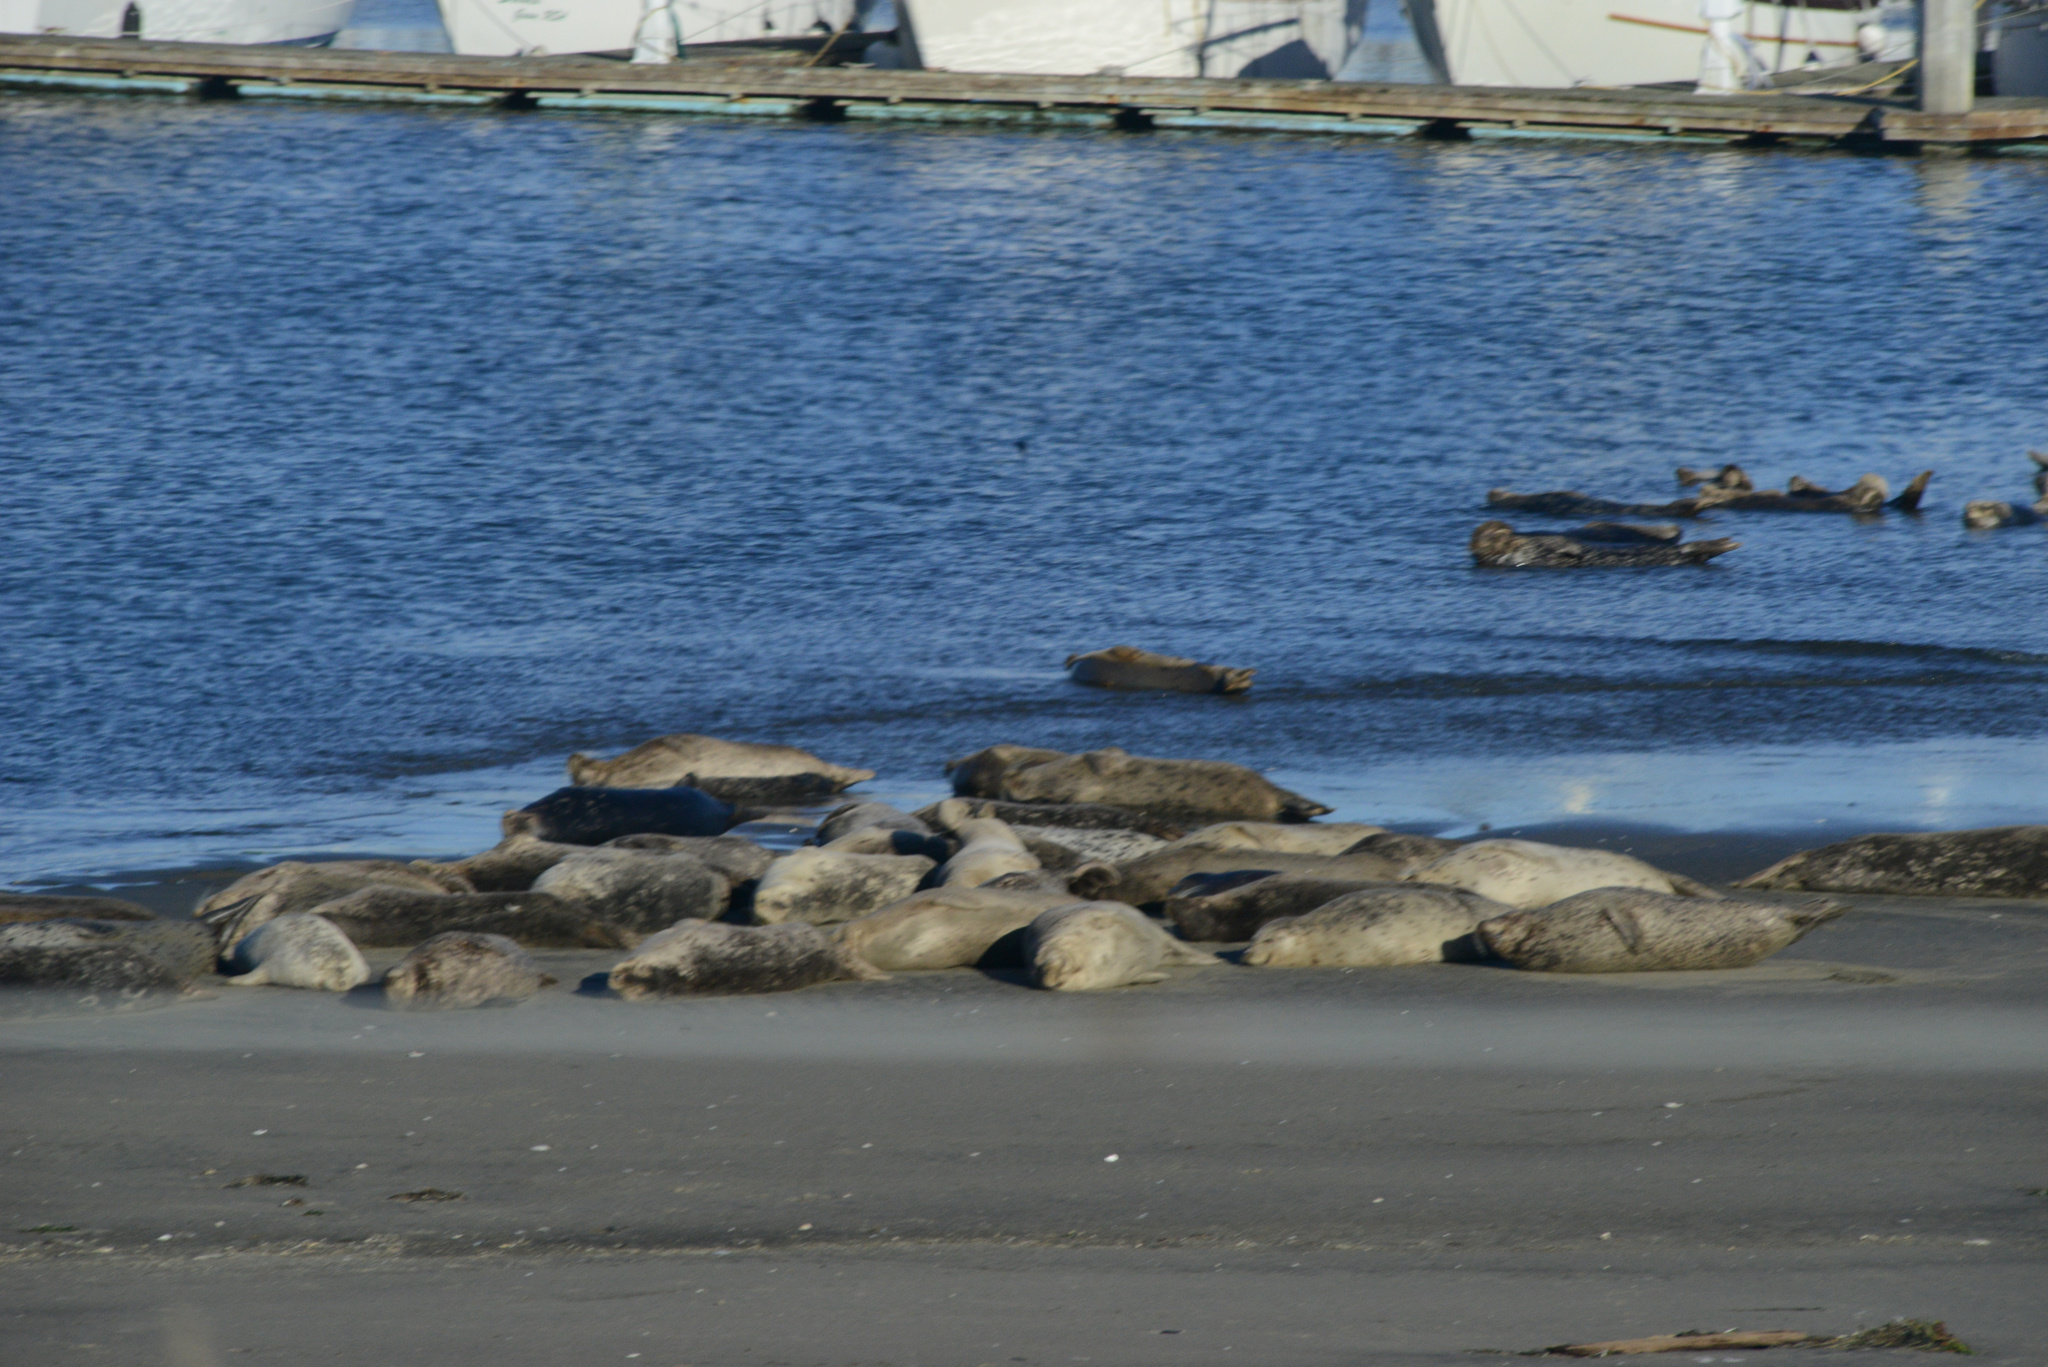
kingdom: Animalia
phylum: Chordata
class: Mammalia
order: Carnivora
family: Phocidae
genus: Phoca
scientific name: Phoca vitulina
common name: Harbor seal
